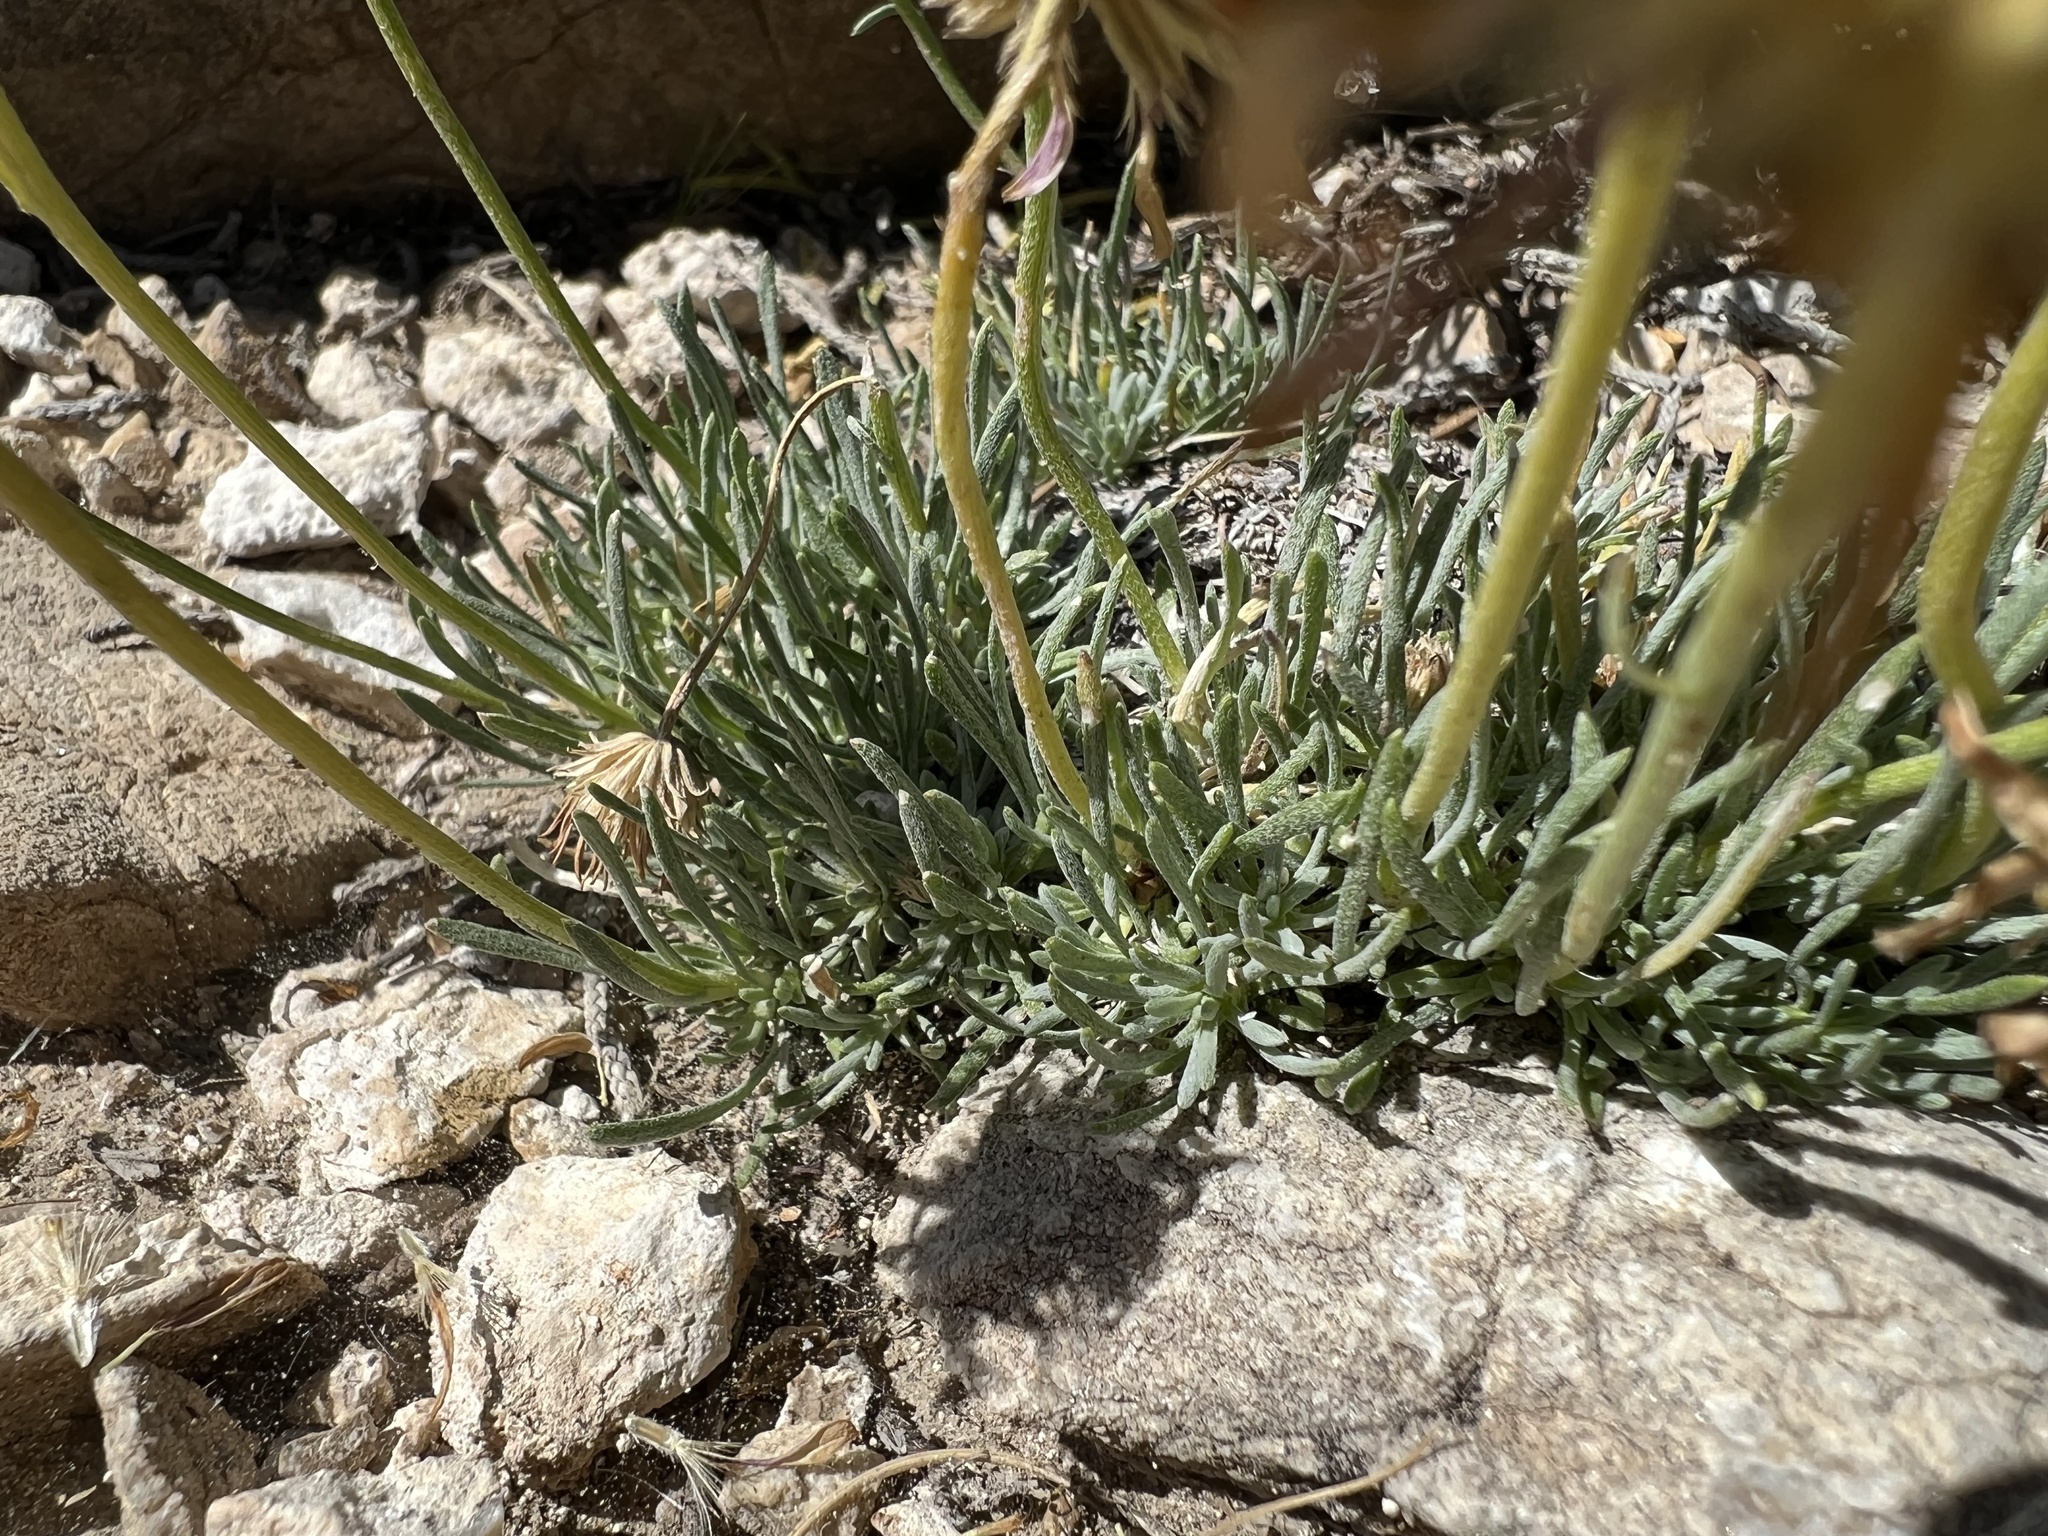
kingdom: Plantae
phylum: Tracheophyta
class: Magnoliopsida
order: Asterales
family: Asteraceae
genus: Erigeron
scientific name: Erigeron compactus
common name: Fern-leaf fleabane
